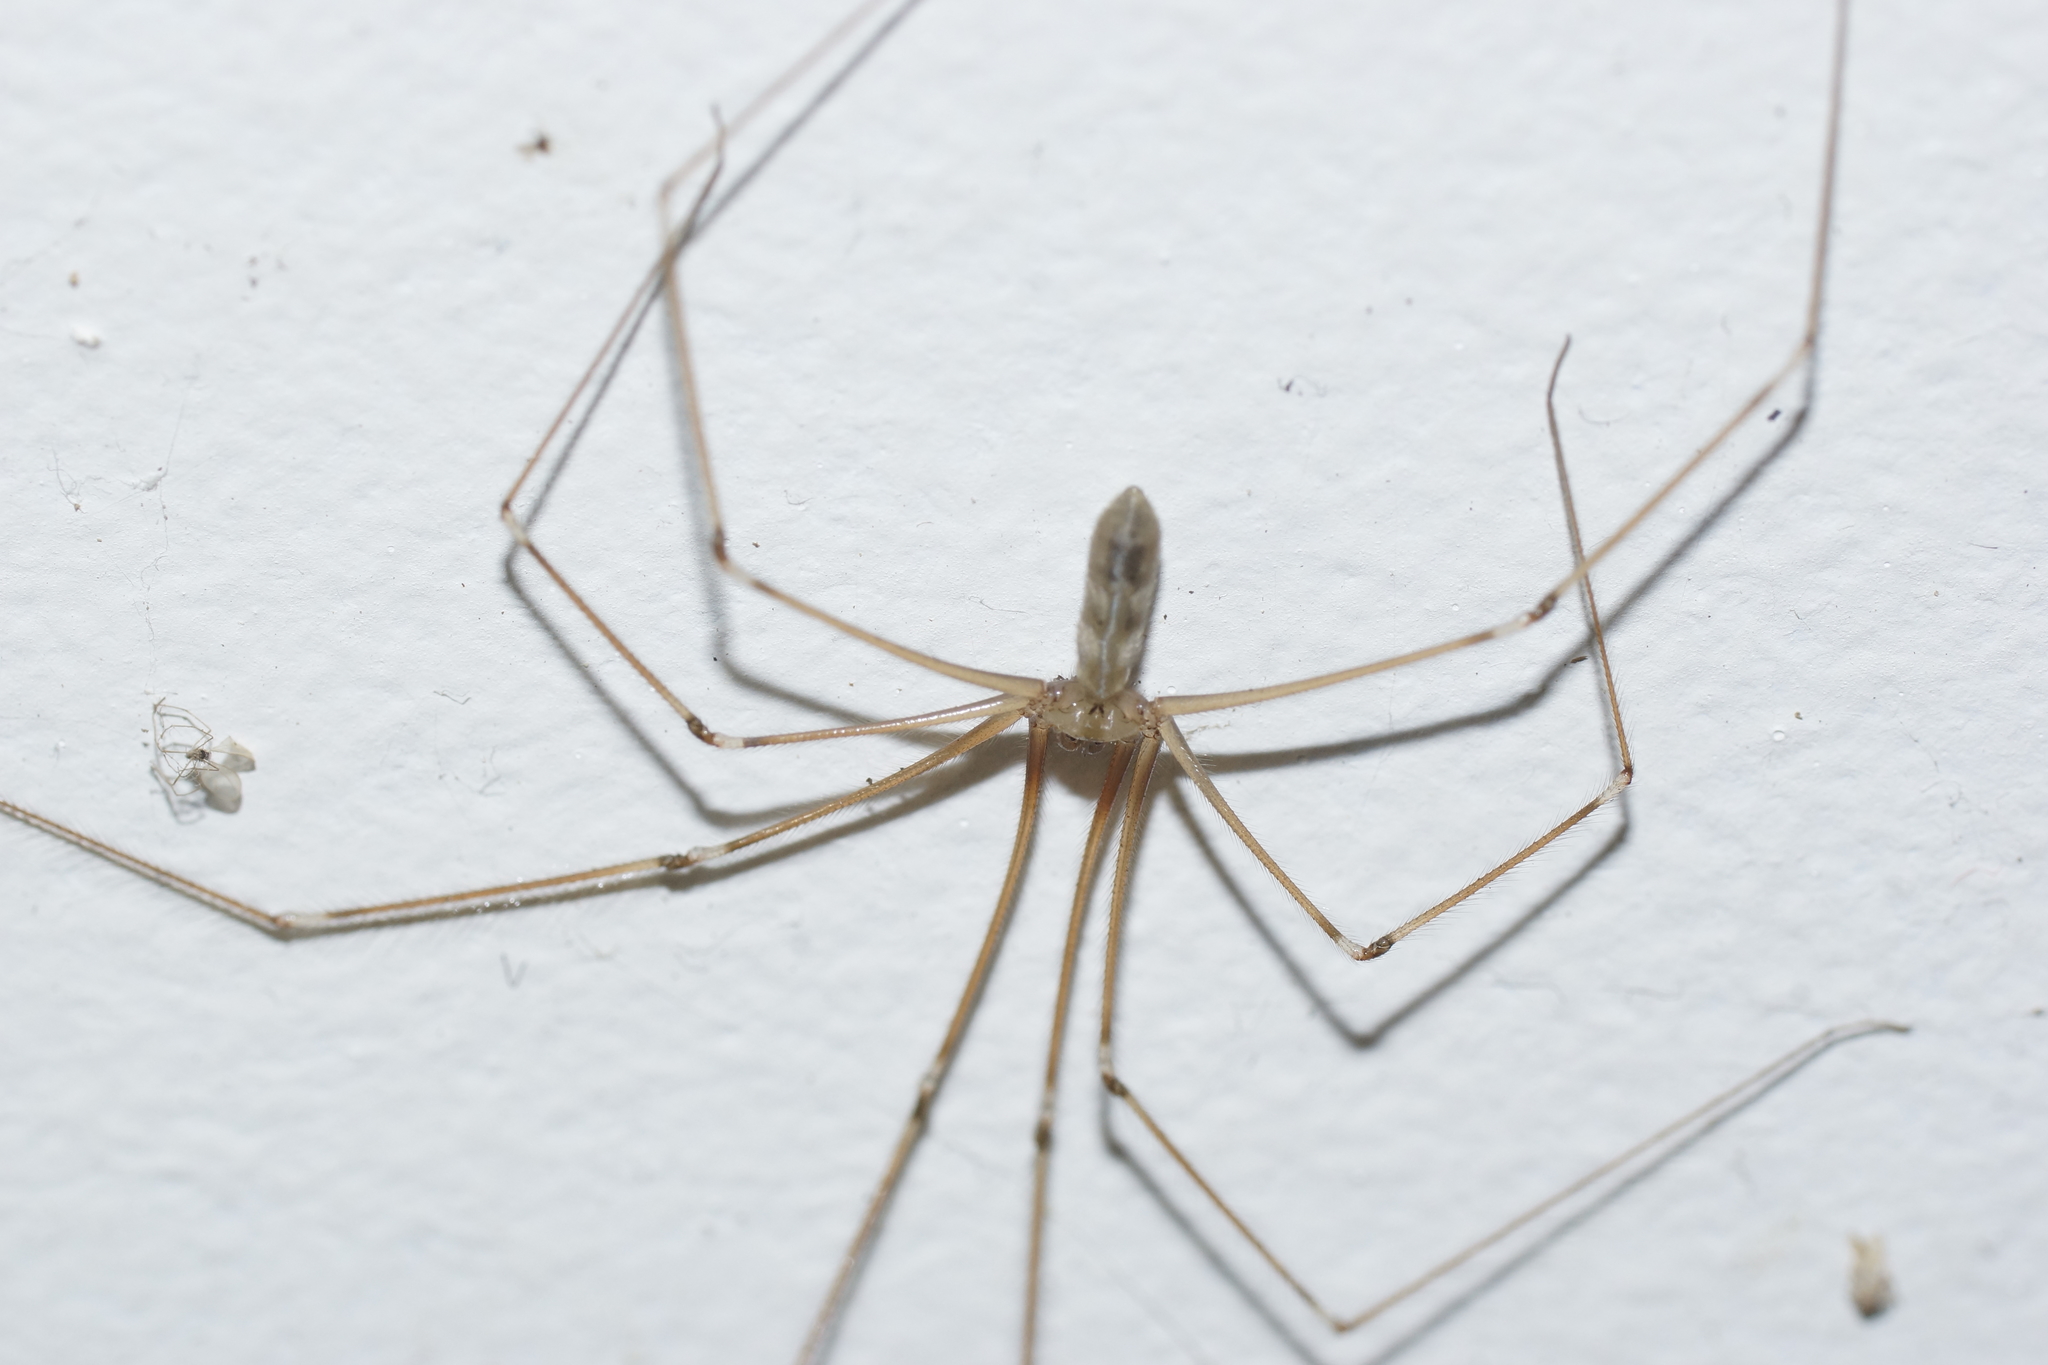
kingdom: Animalia
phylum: Arthropoda
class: Arachnida
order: Araneae
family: Pholcidae
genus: Pholcus
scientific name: Pholcus phalangioides
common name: Longbodied cellar spider
